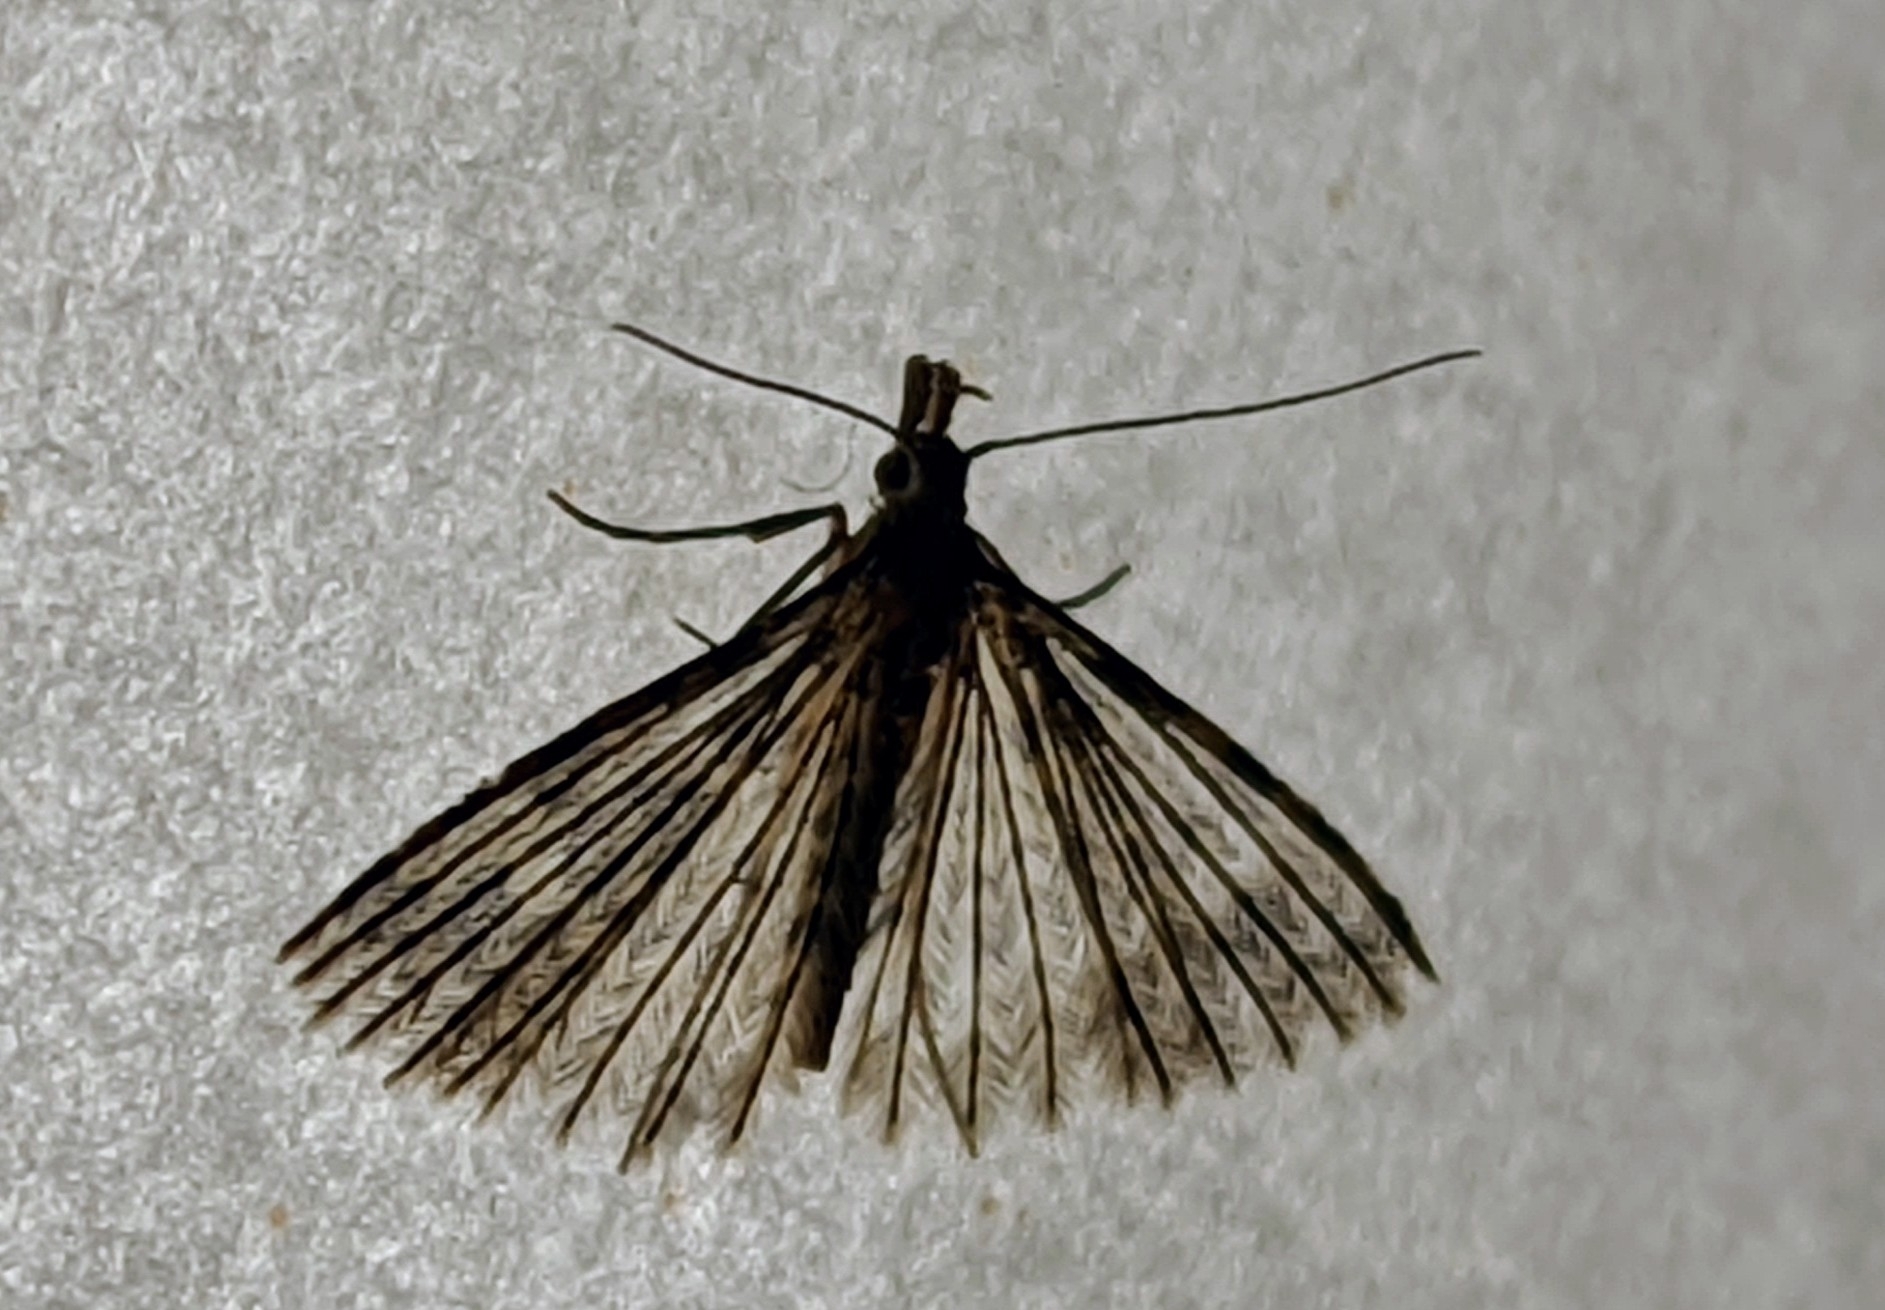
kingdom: Animalia
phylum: Arthropoda
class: Insecta
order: Lepidoptera
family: Alucitidae
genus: Alucita
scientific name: Alucita hexadactyla
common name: Twenty-plume moth
